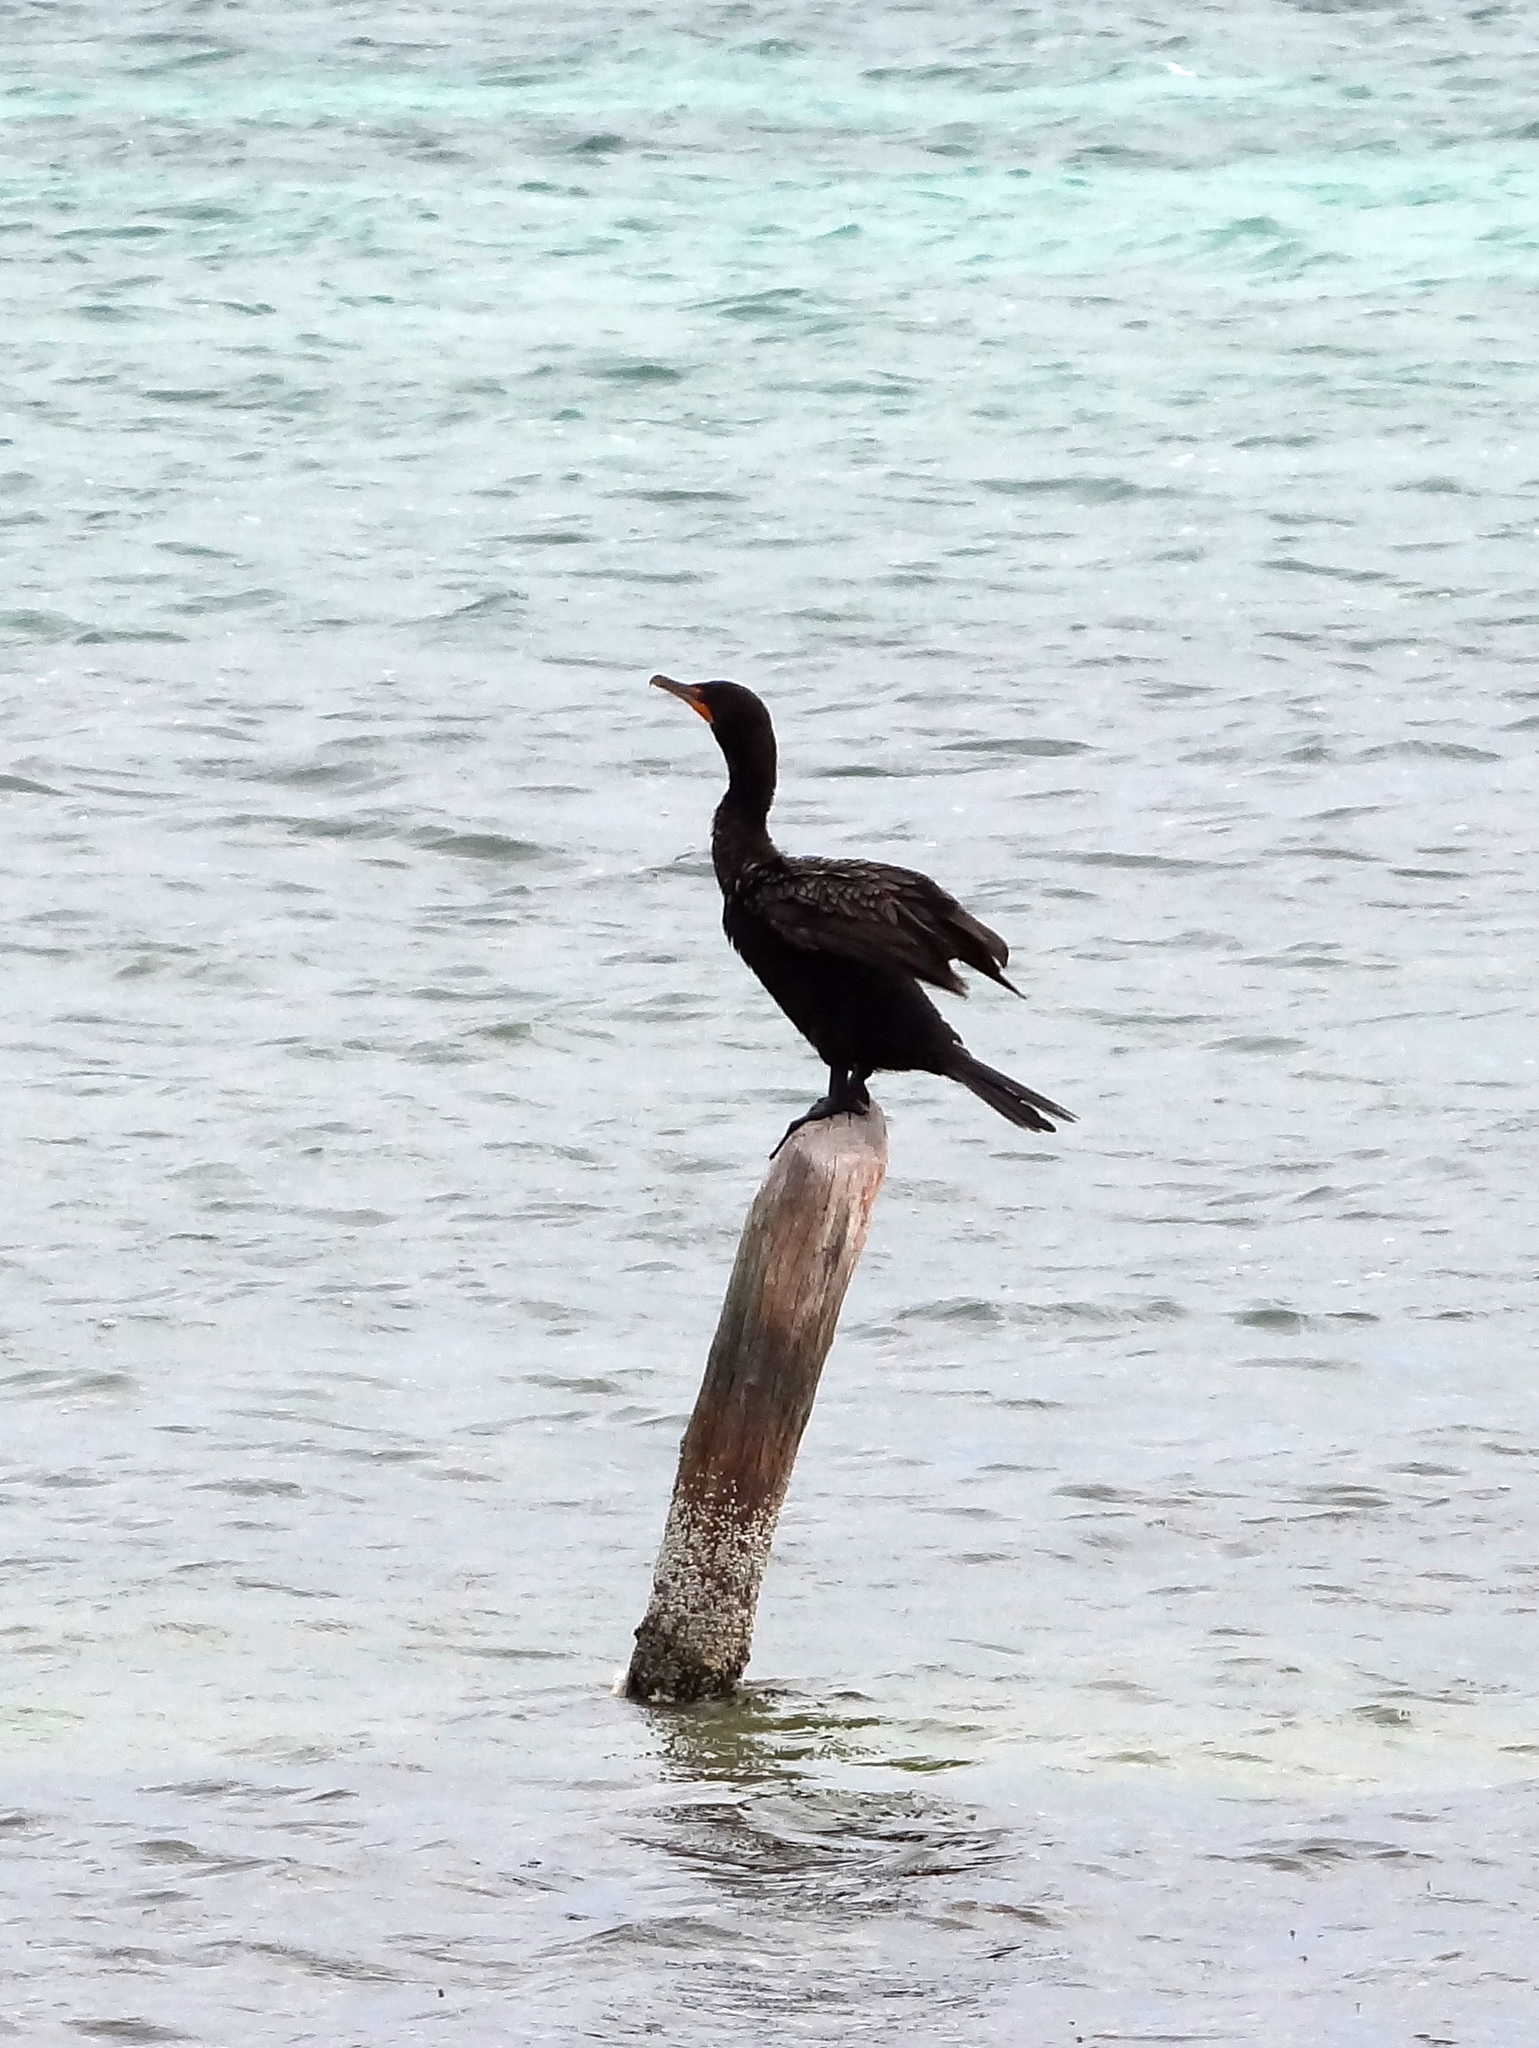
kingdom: Animalia
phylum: Chordata
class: Aves
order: Suliformes
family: Phalacrocoracidae
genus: Phalacrocorax
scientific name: Phalacrocorax auritus
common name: Double-crested cormorant
